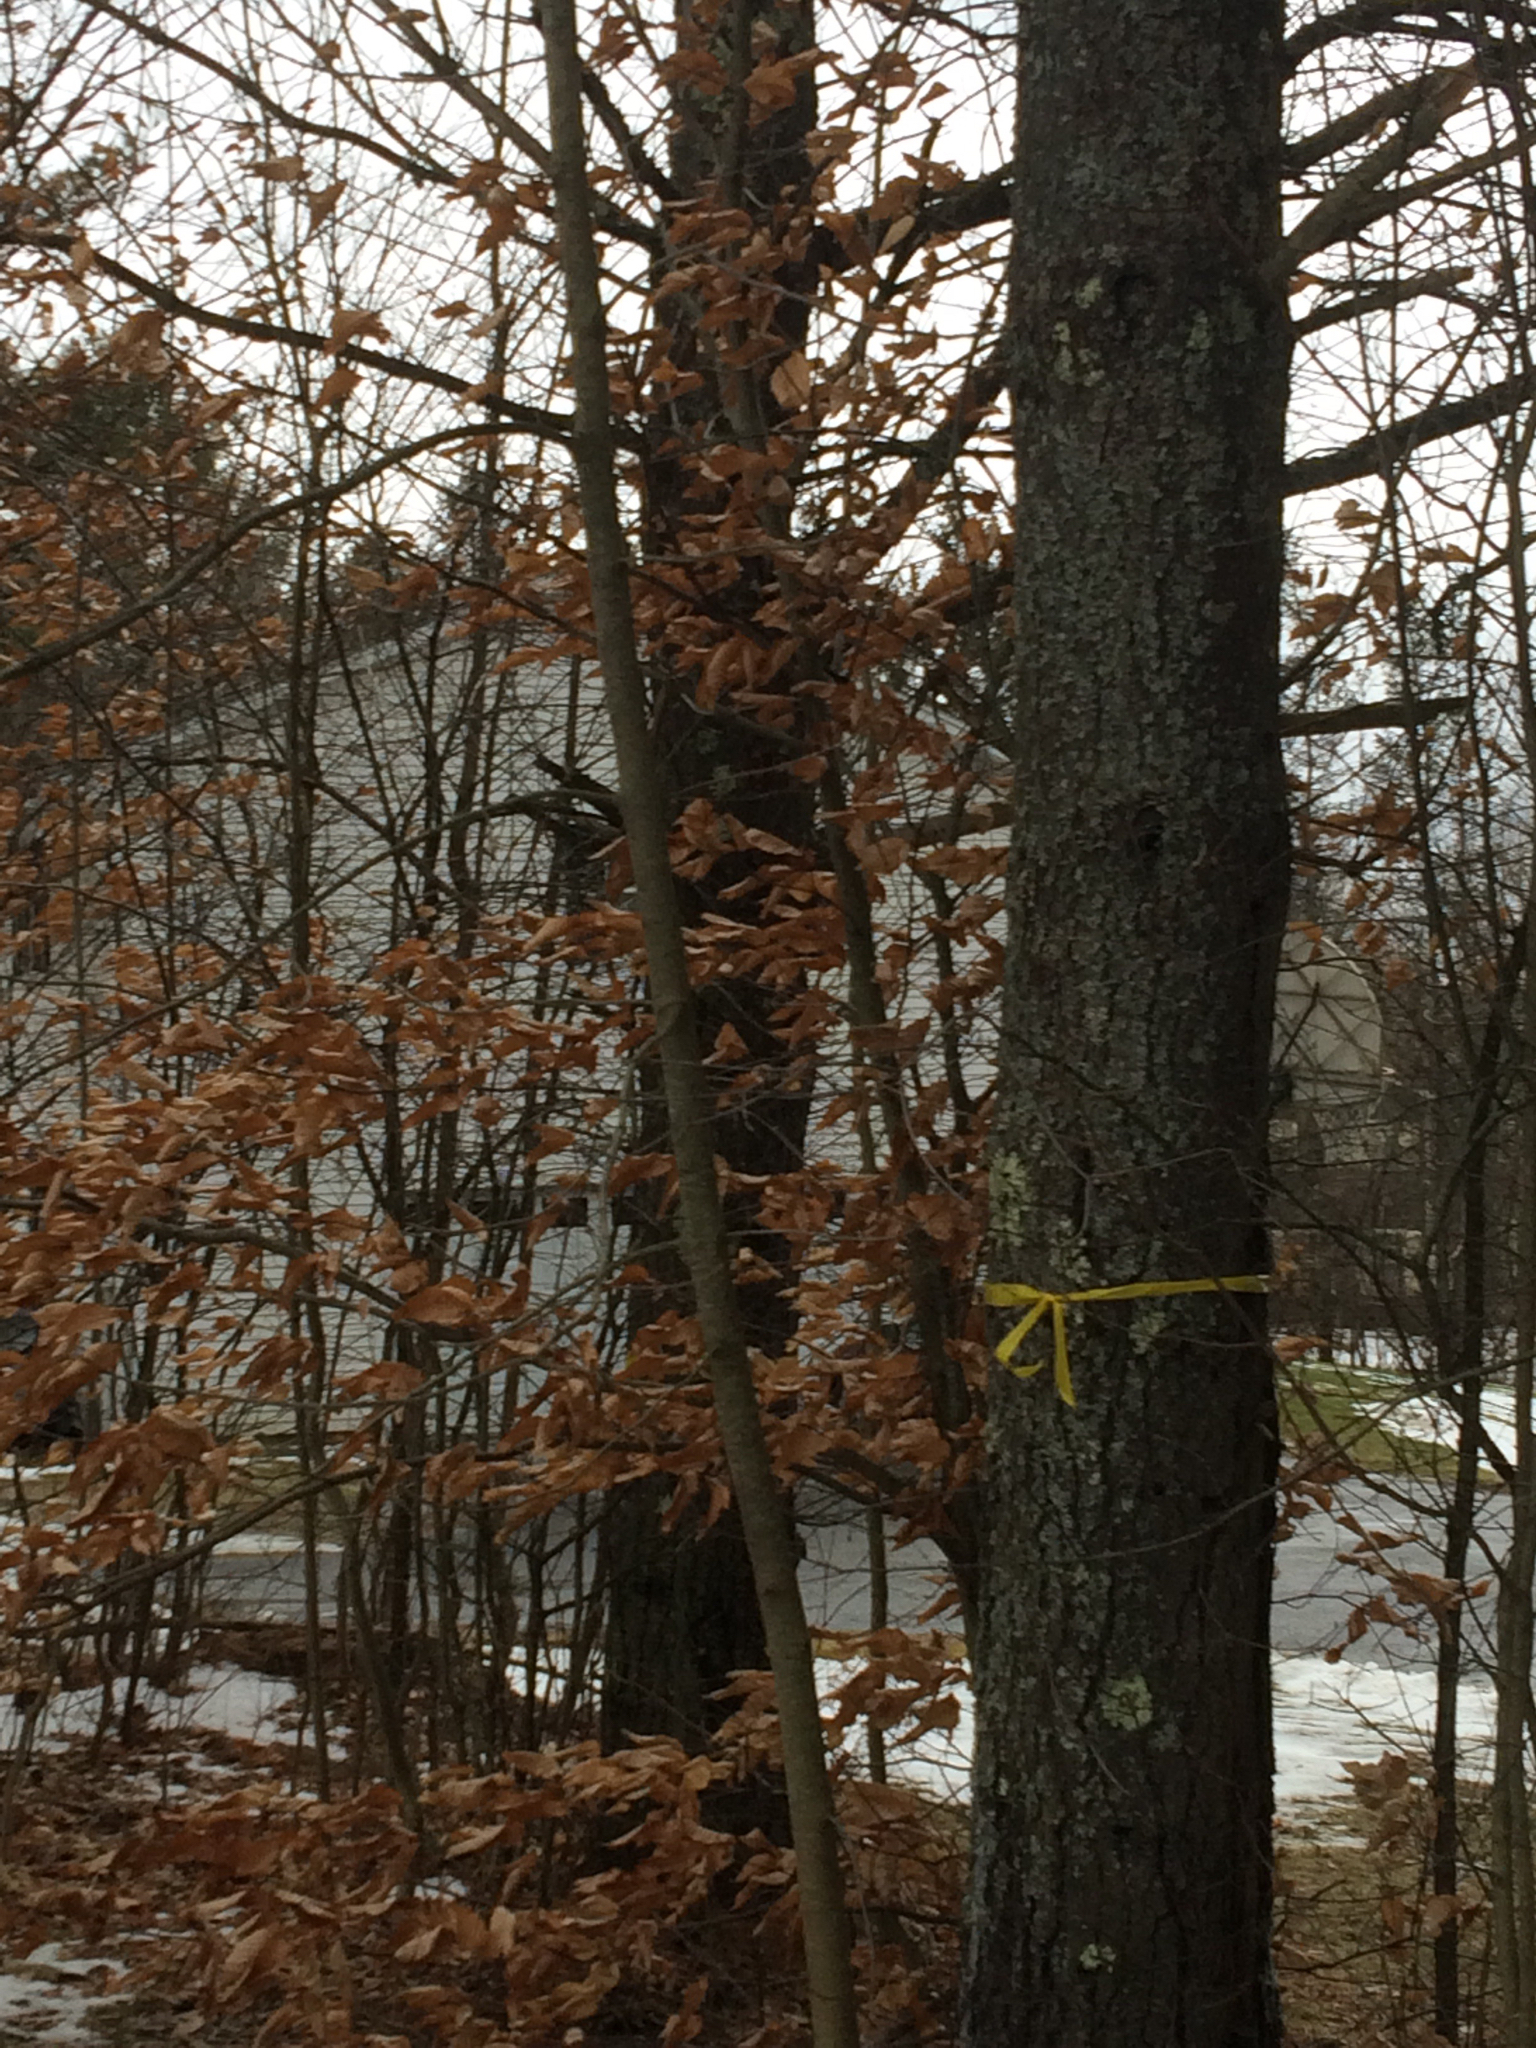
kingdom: Plantae
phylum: Tracheophyta
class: Magnoliopsida
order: Fagales
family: Fagaceae
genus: Fagus
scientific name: Fagus grandifolia
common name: American beech
